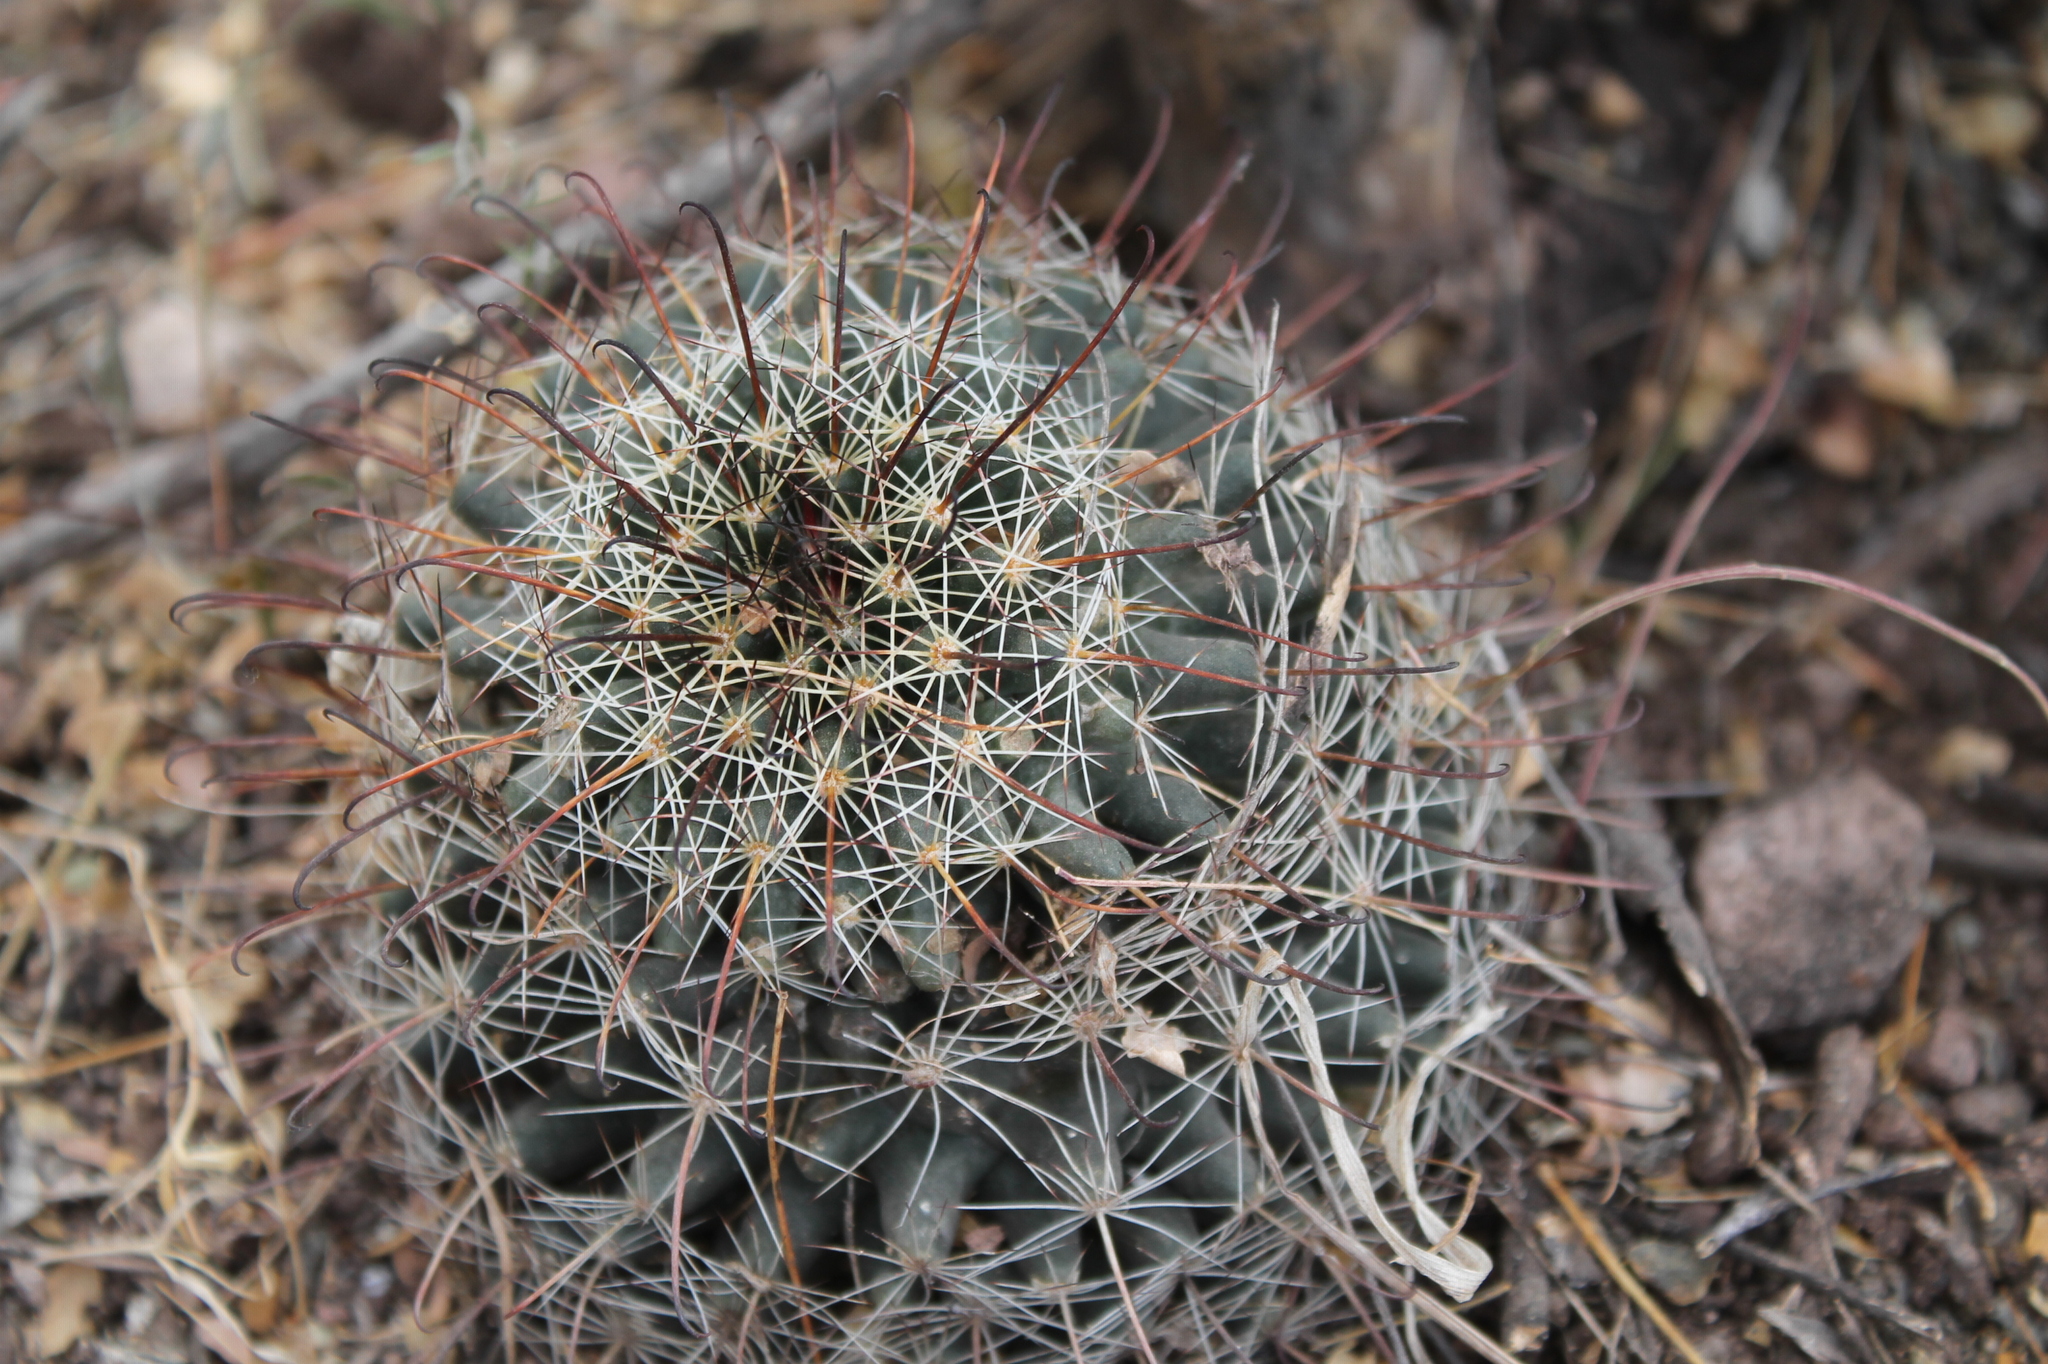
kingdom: Plantae
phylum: Tracheophyta
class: Magnoliopsida
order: Caryophyllales
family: Cactaceae
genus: Cochemiea
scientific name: Cochemiea mainiae
